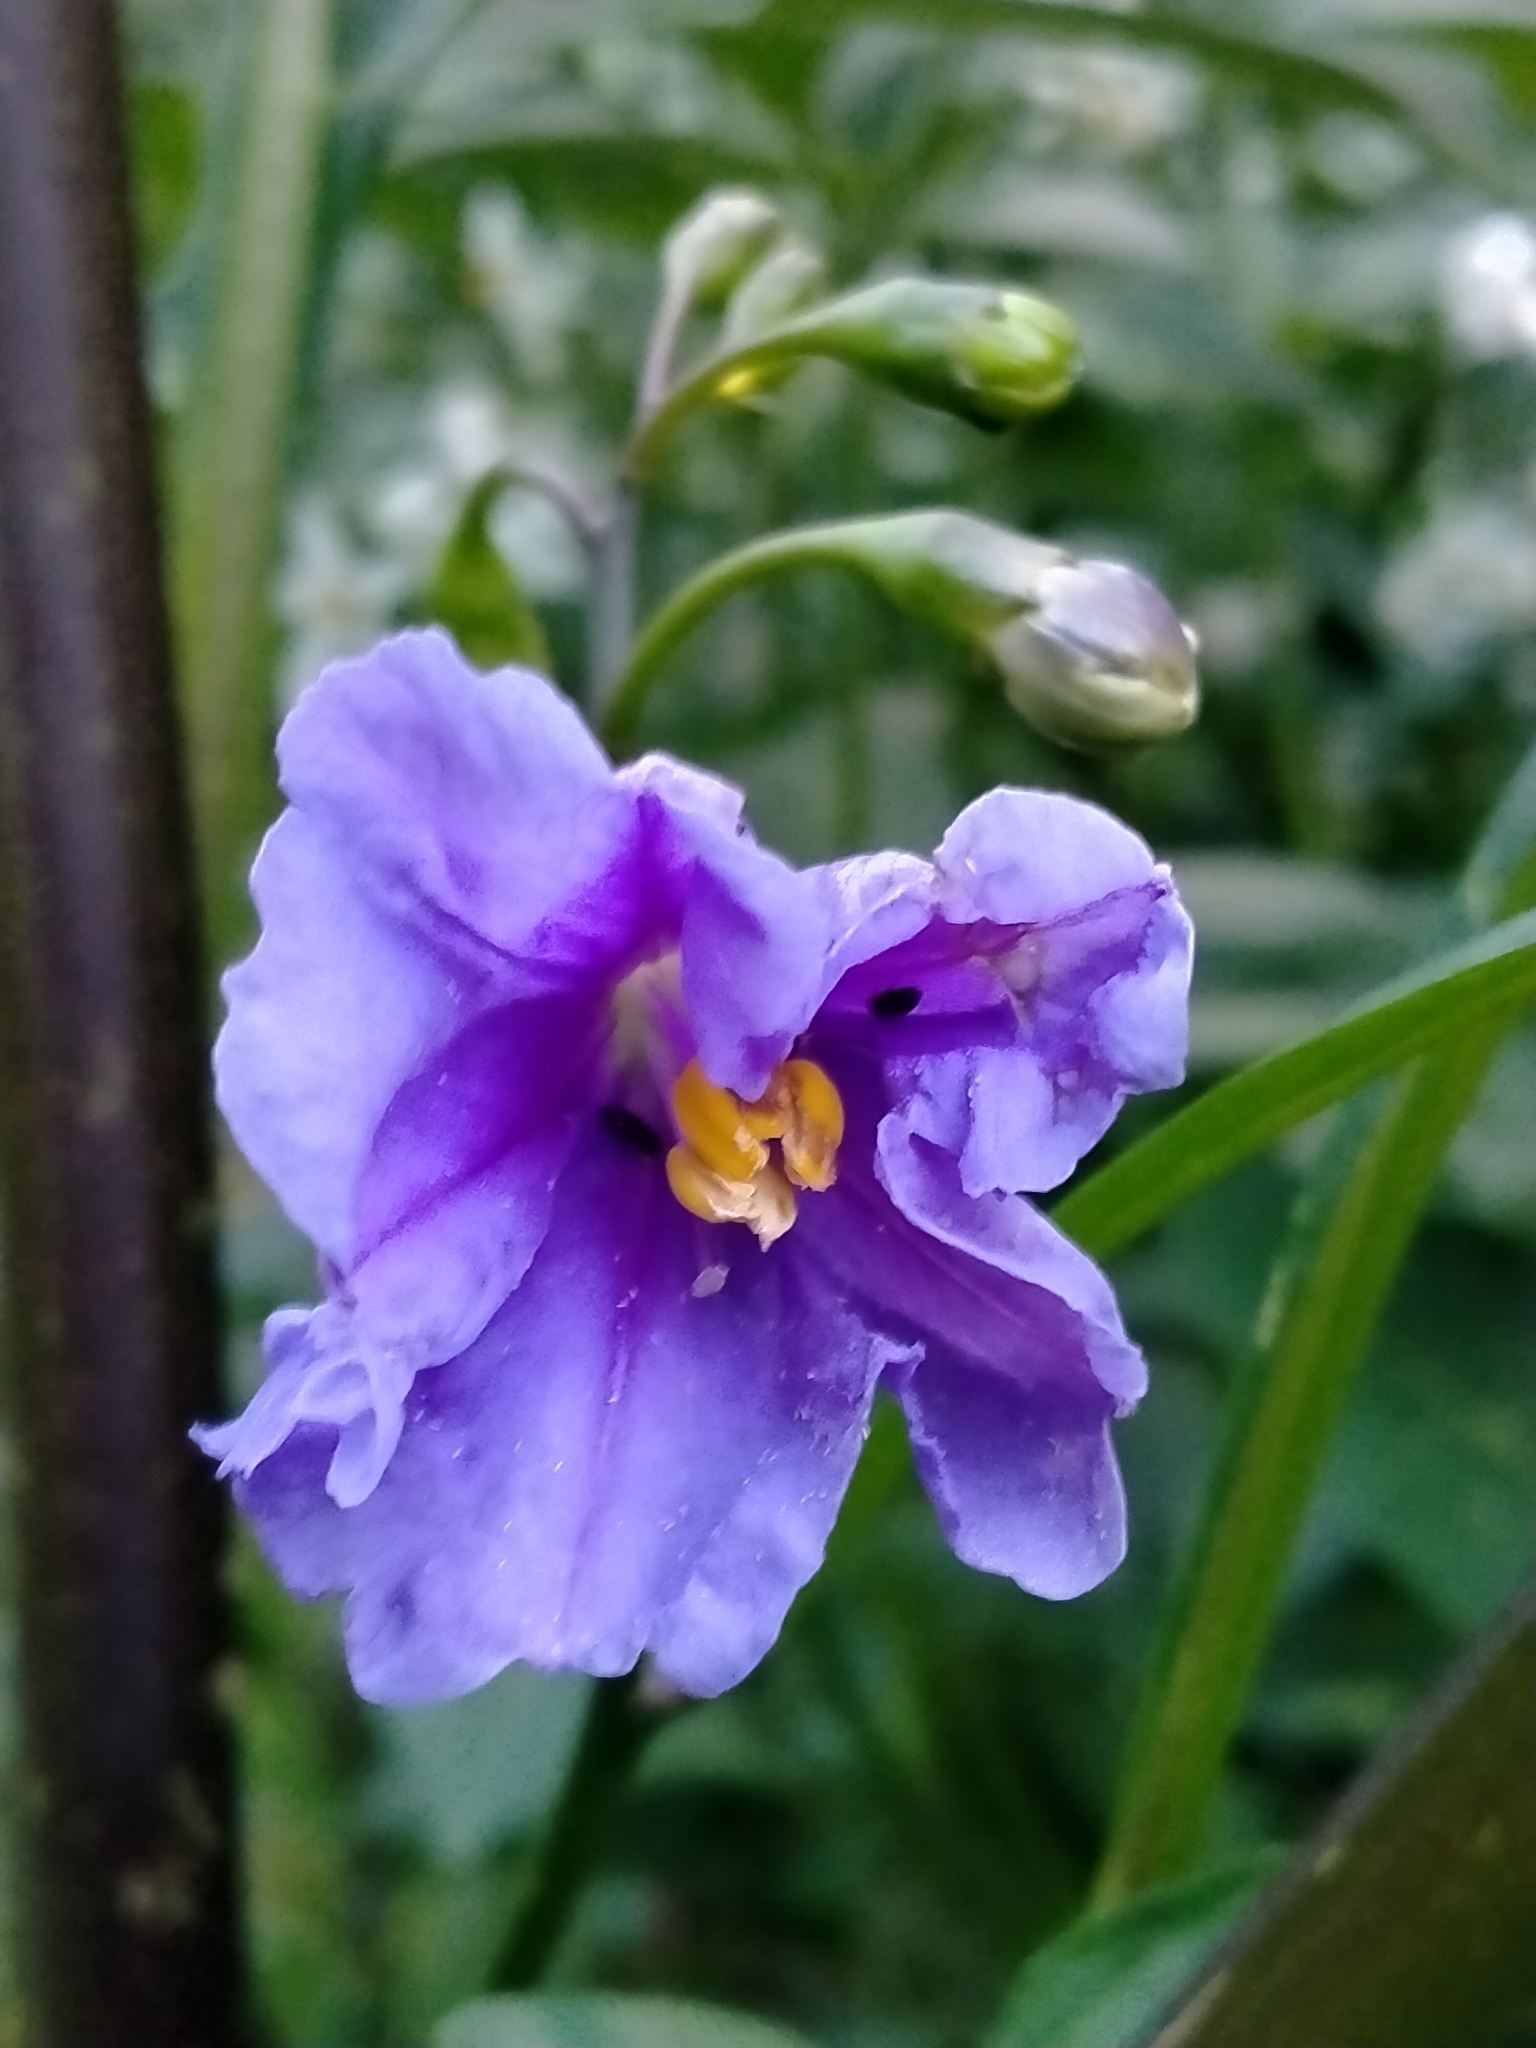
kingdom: Plantae
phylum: Tracheophyta
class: Magnoliopsida
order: Solanales
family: Solanaceae
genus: Solanum
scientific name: Solanum laciniatum
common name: Kangaroo-apple
